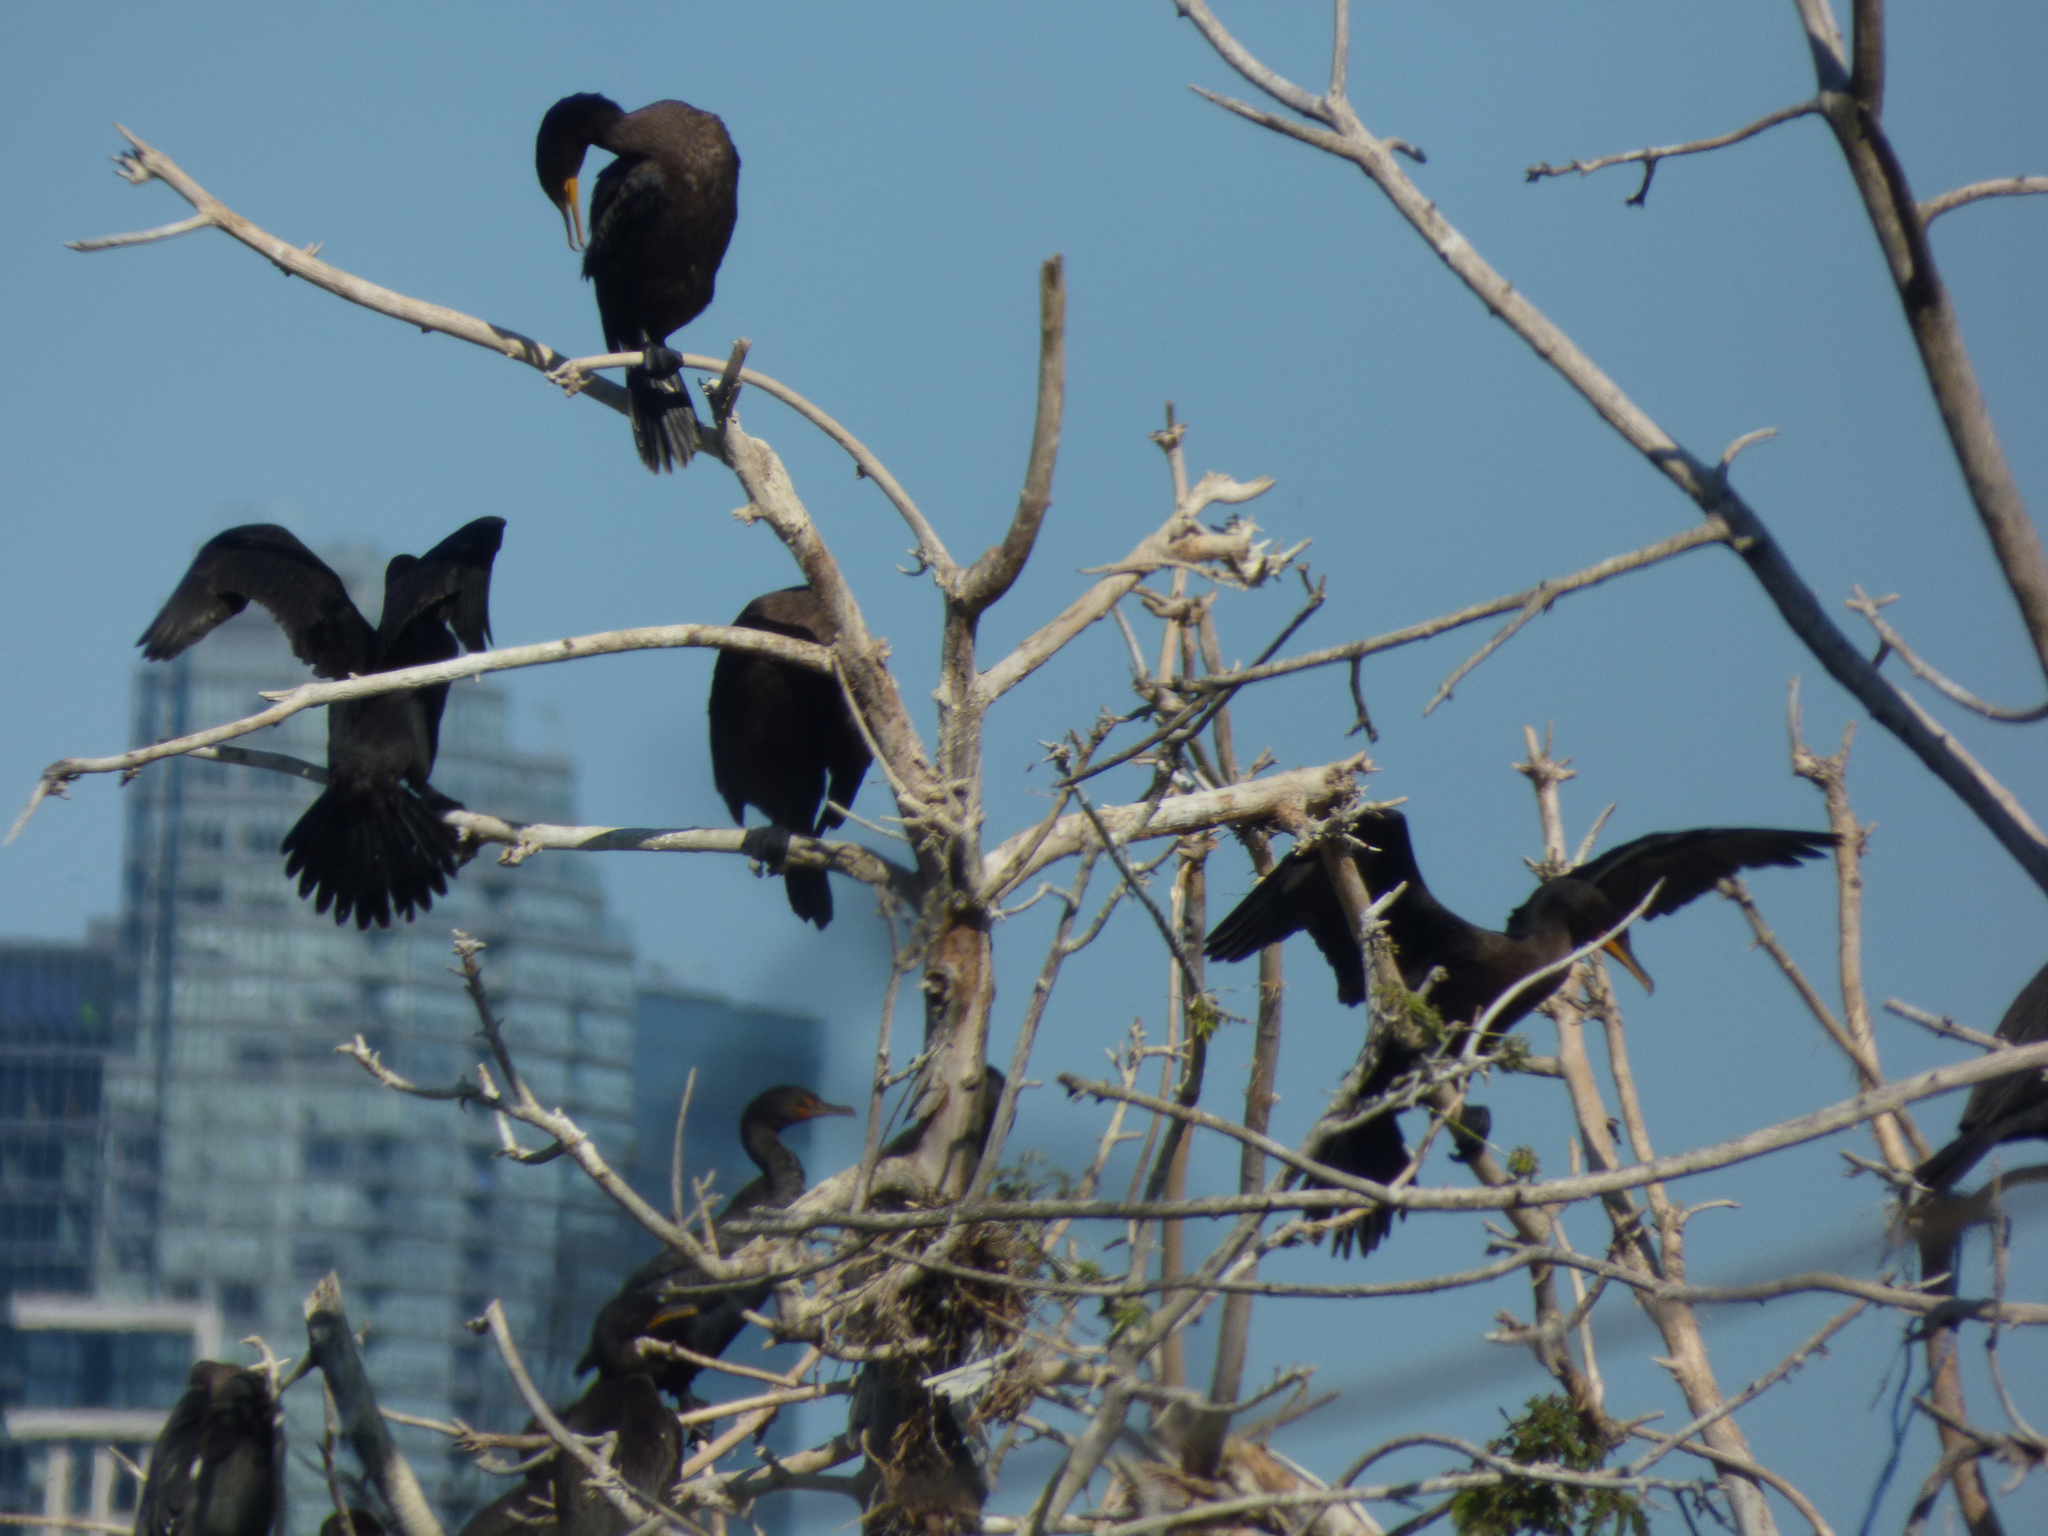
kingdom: Animalia
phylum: Chordata
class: Aves
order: Suliformes
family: Phalacrocoracidae
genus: Phalacrocorax
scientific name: Phalacrocorax auritus
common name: Double-crested cormorant
